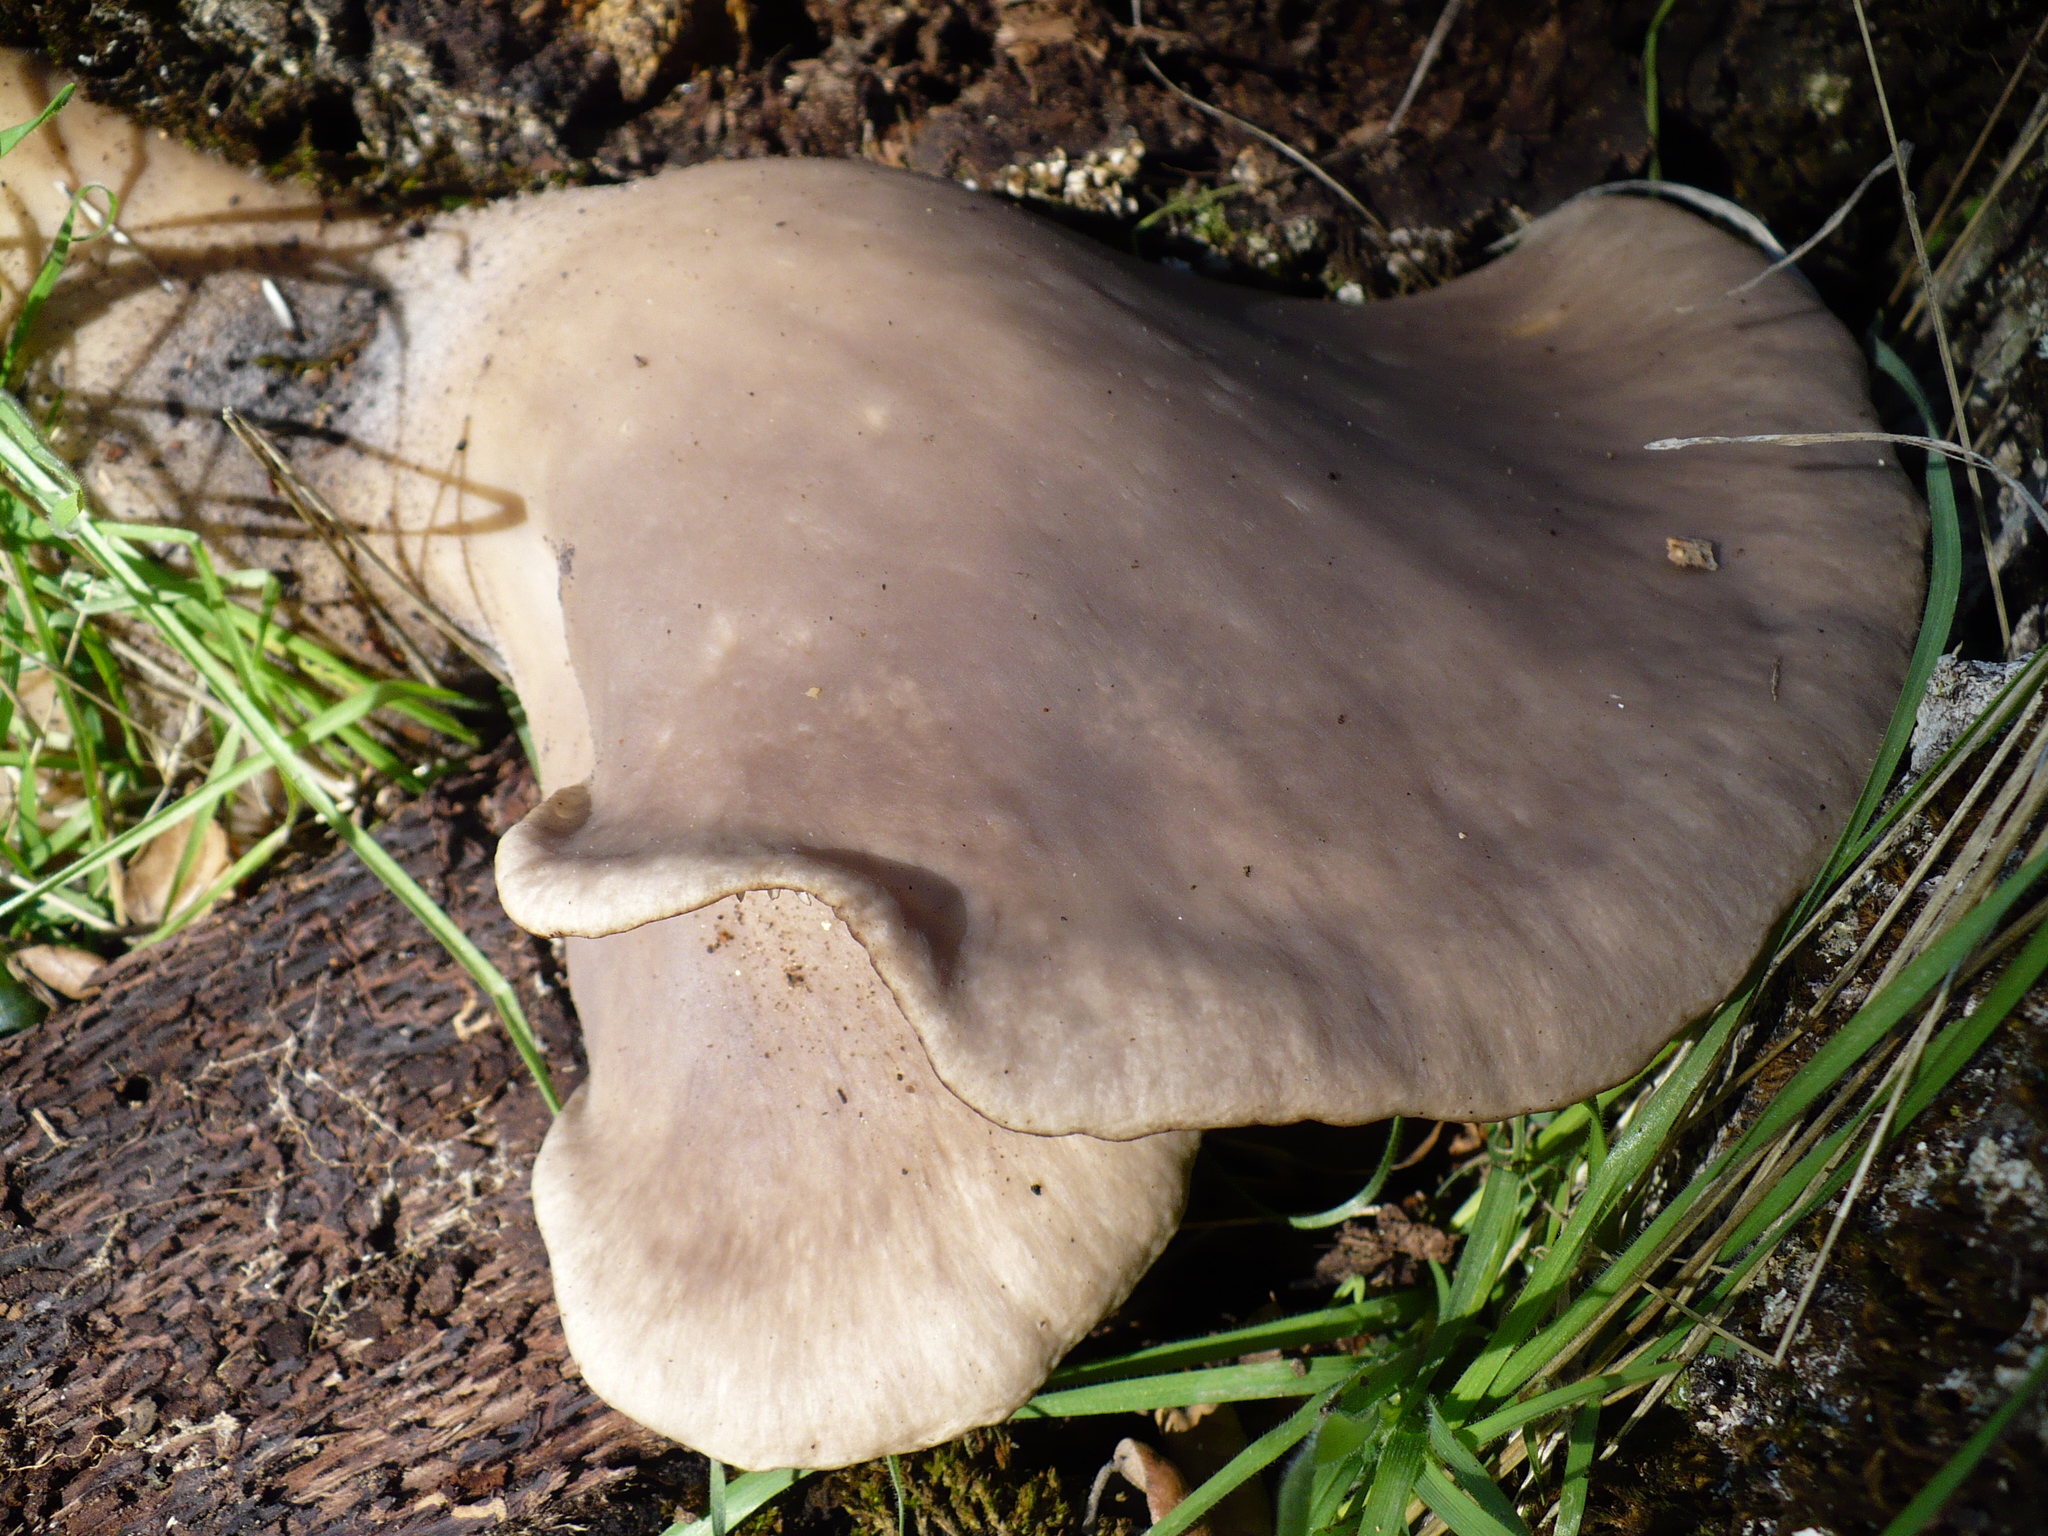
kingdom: Fungi
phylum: Basidiomycota
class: Agaricomycetes
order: Agaricales
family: Pleurotaceae
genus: Pleurotus
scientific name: Pleurotus ostreatus
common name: Oyster mushroom
